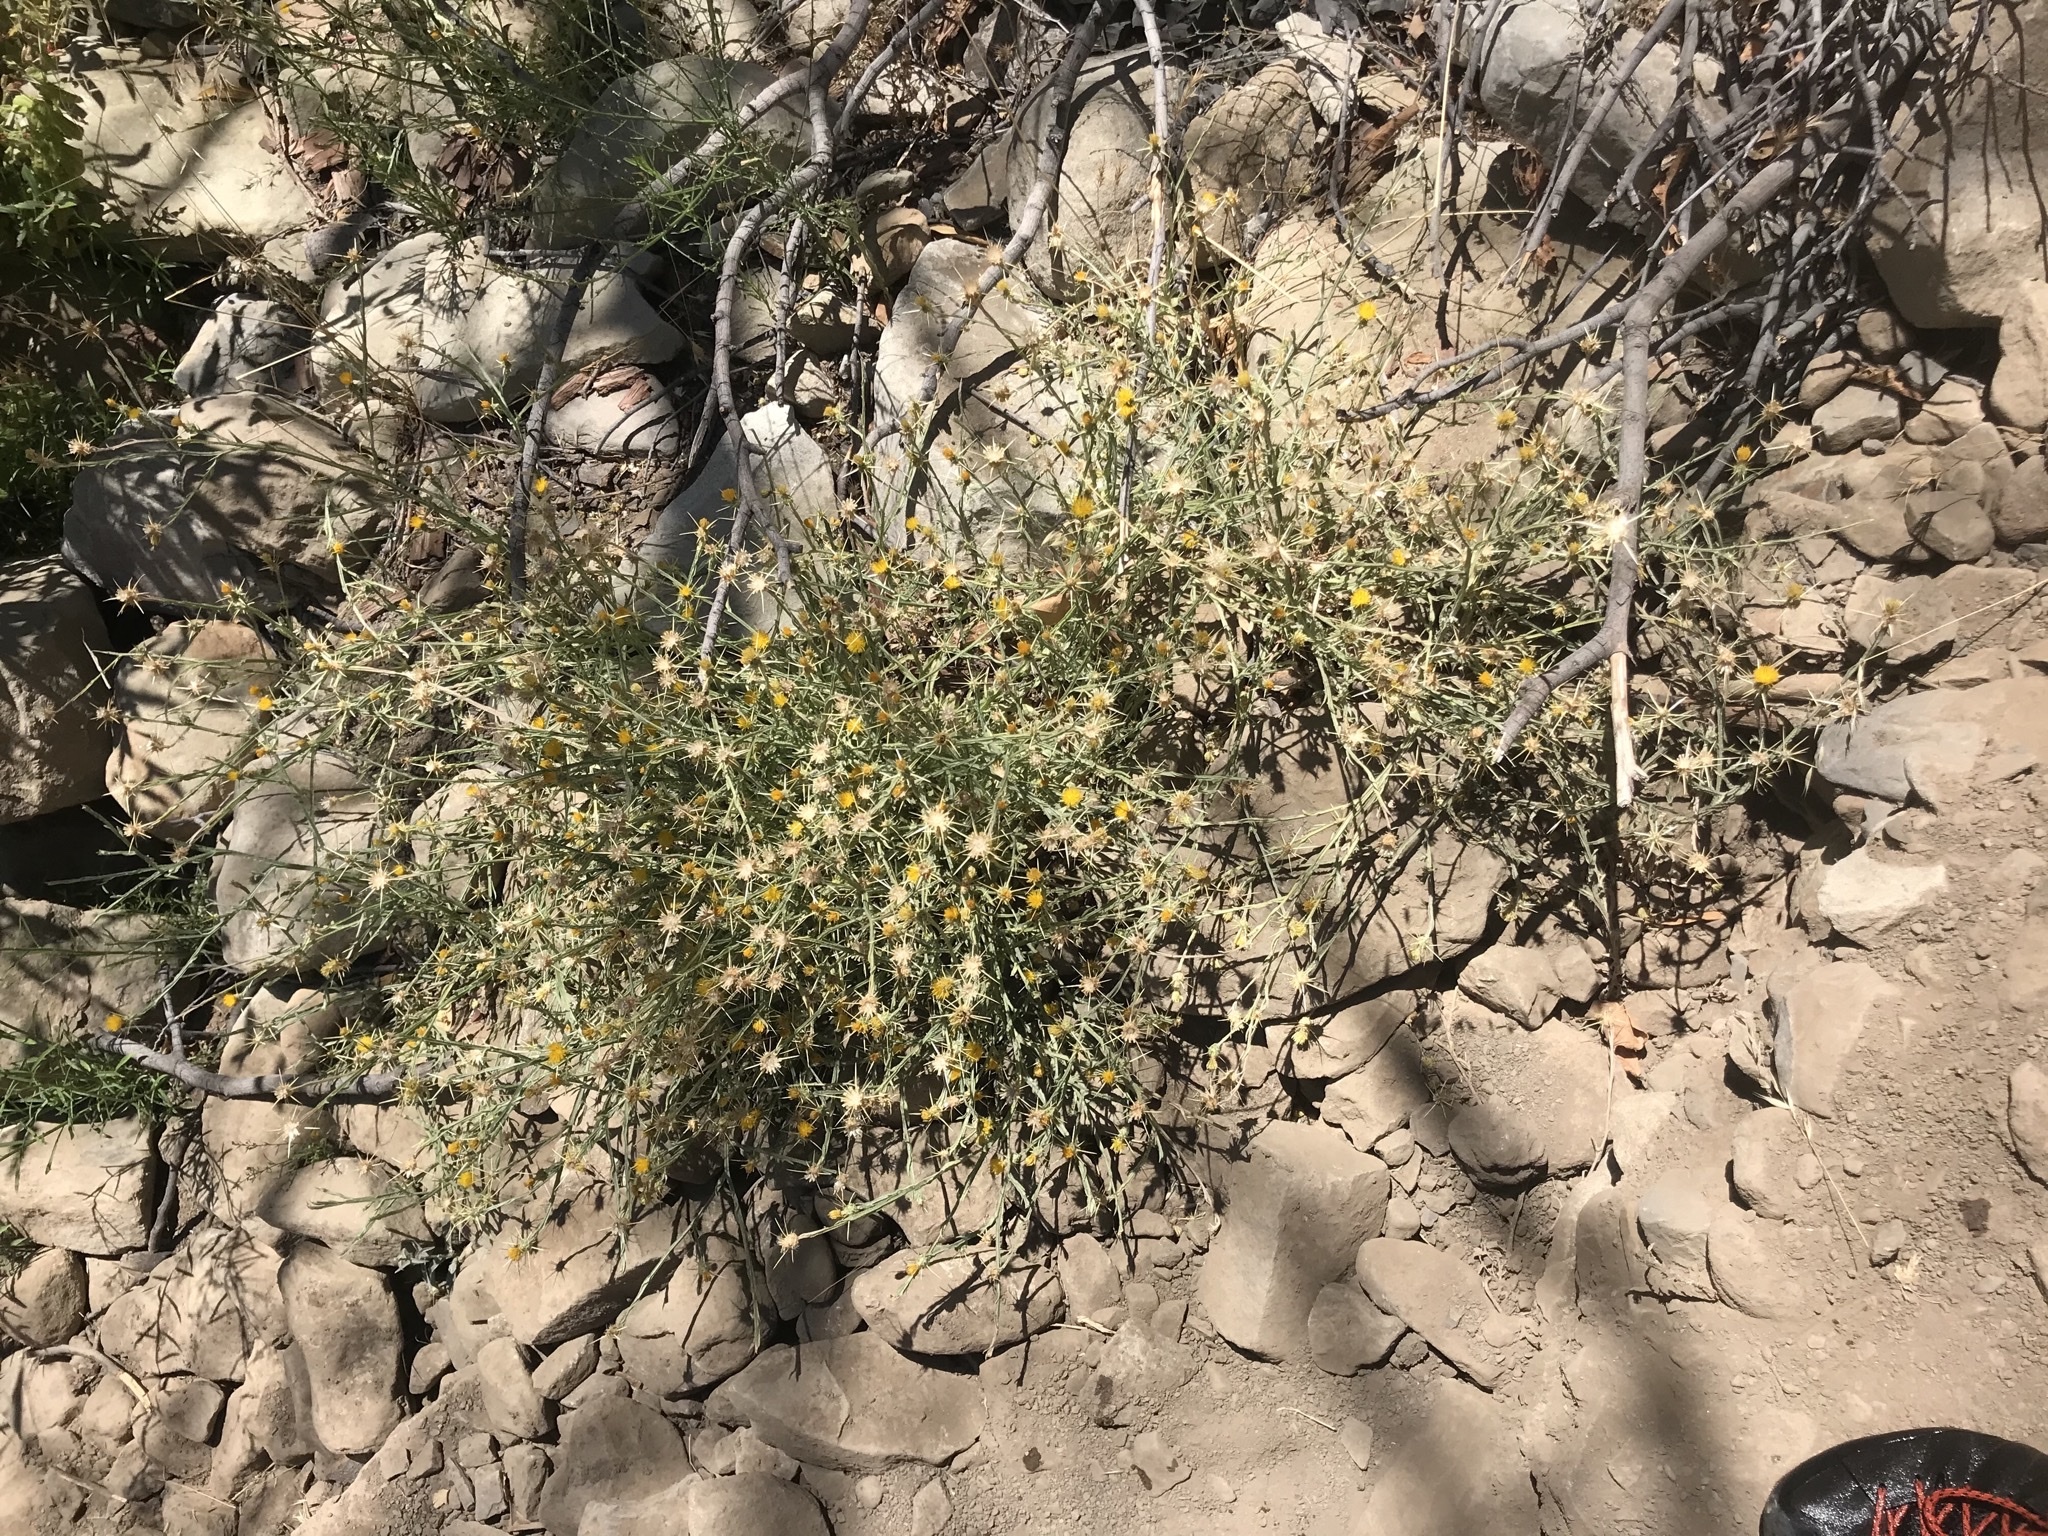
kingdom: Plantae
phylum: Tracheophyta
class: Magnoliopsida
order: Asterales
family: Asteraceae
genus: Centaurea
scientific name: Centaurea solstitialis
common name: Yellow star-thistle
